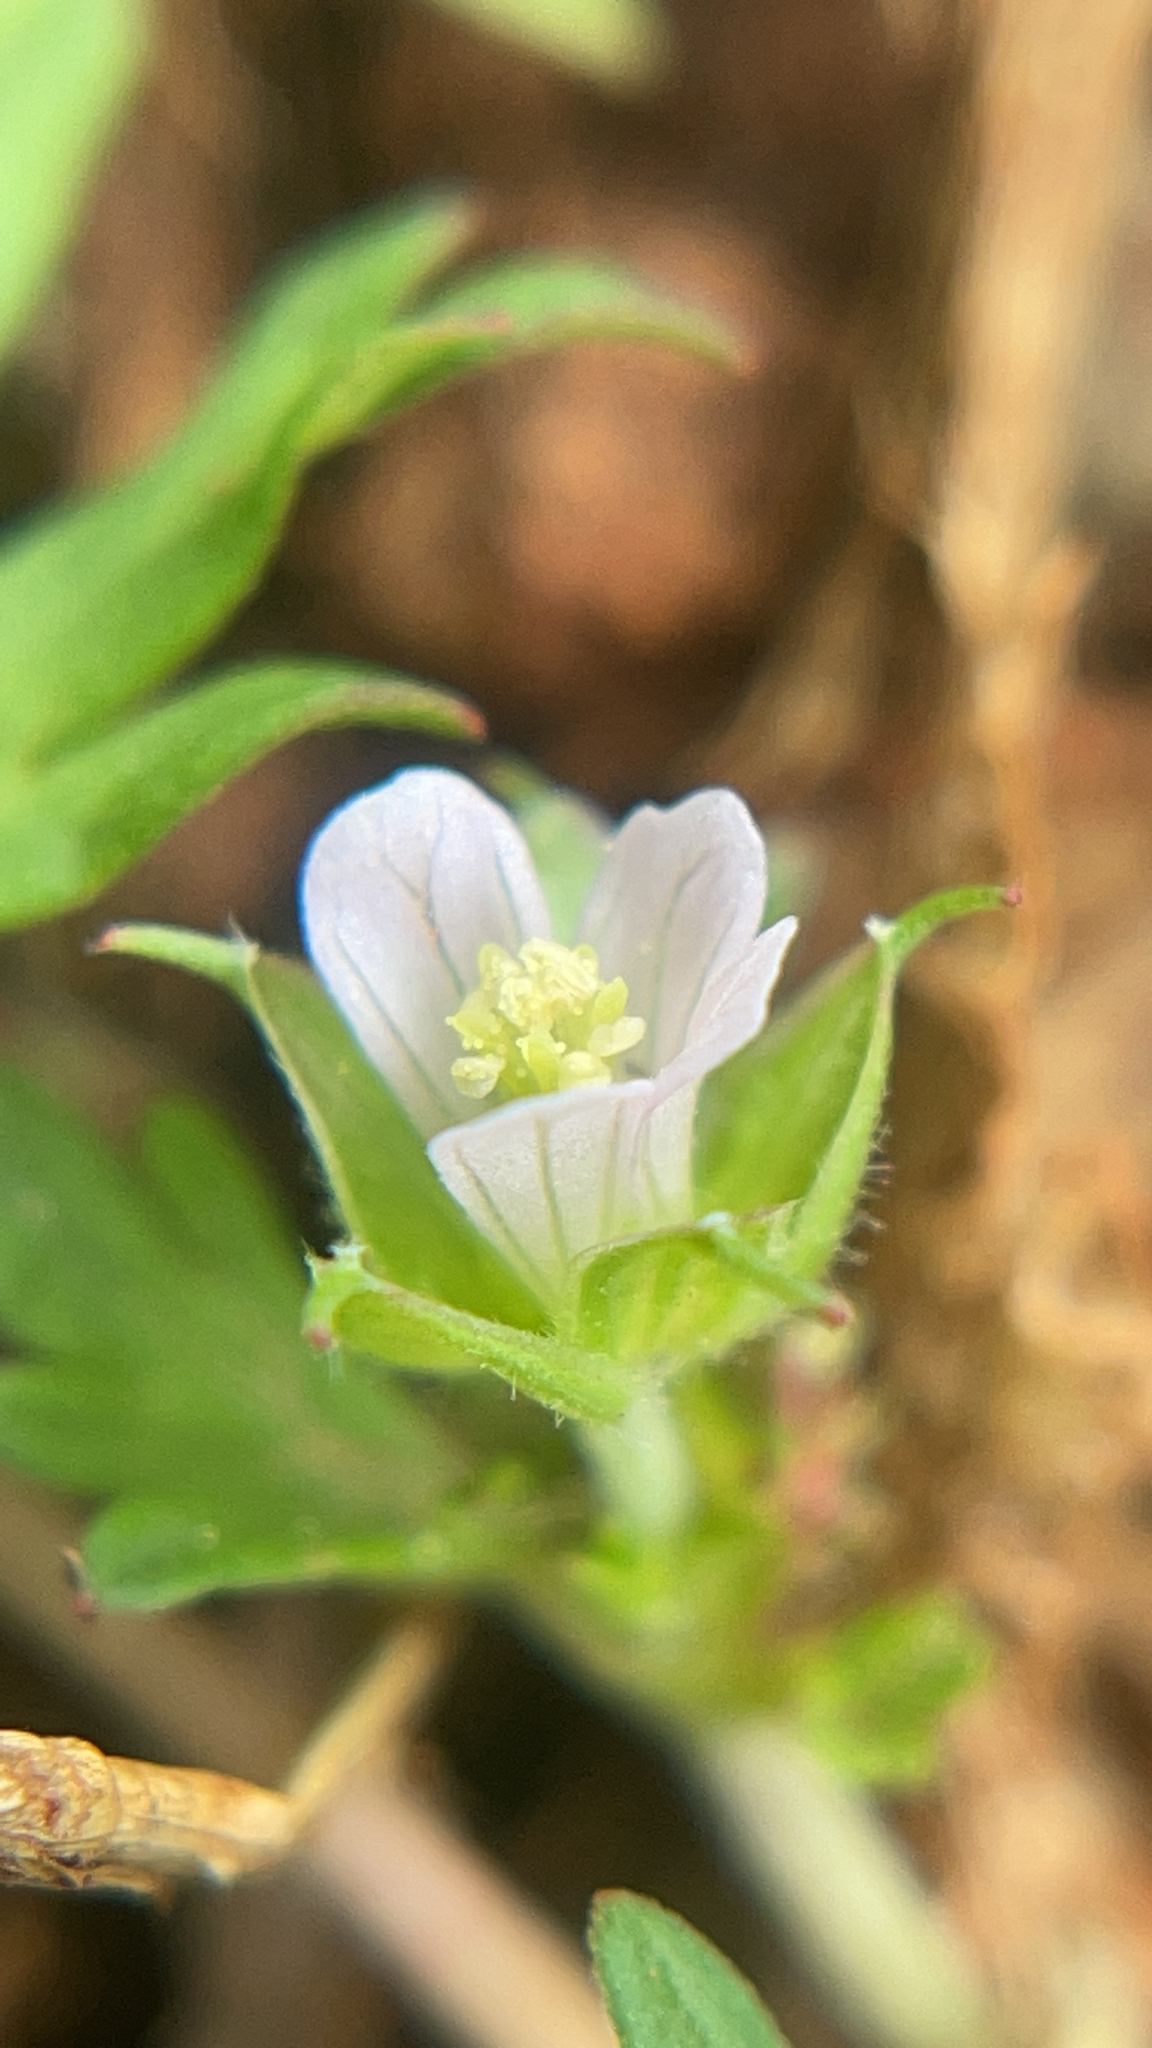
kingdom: Plantae
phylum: Tracheophyta
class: Magnoliopsida
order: Geraniales
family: Geraniaceae
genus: Geranium
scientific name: Geranium carolinianum
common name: Carolina crane's-bill
